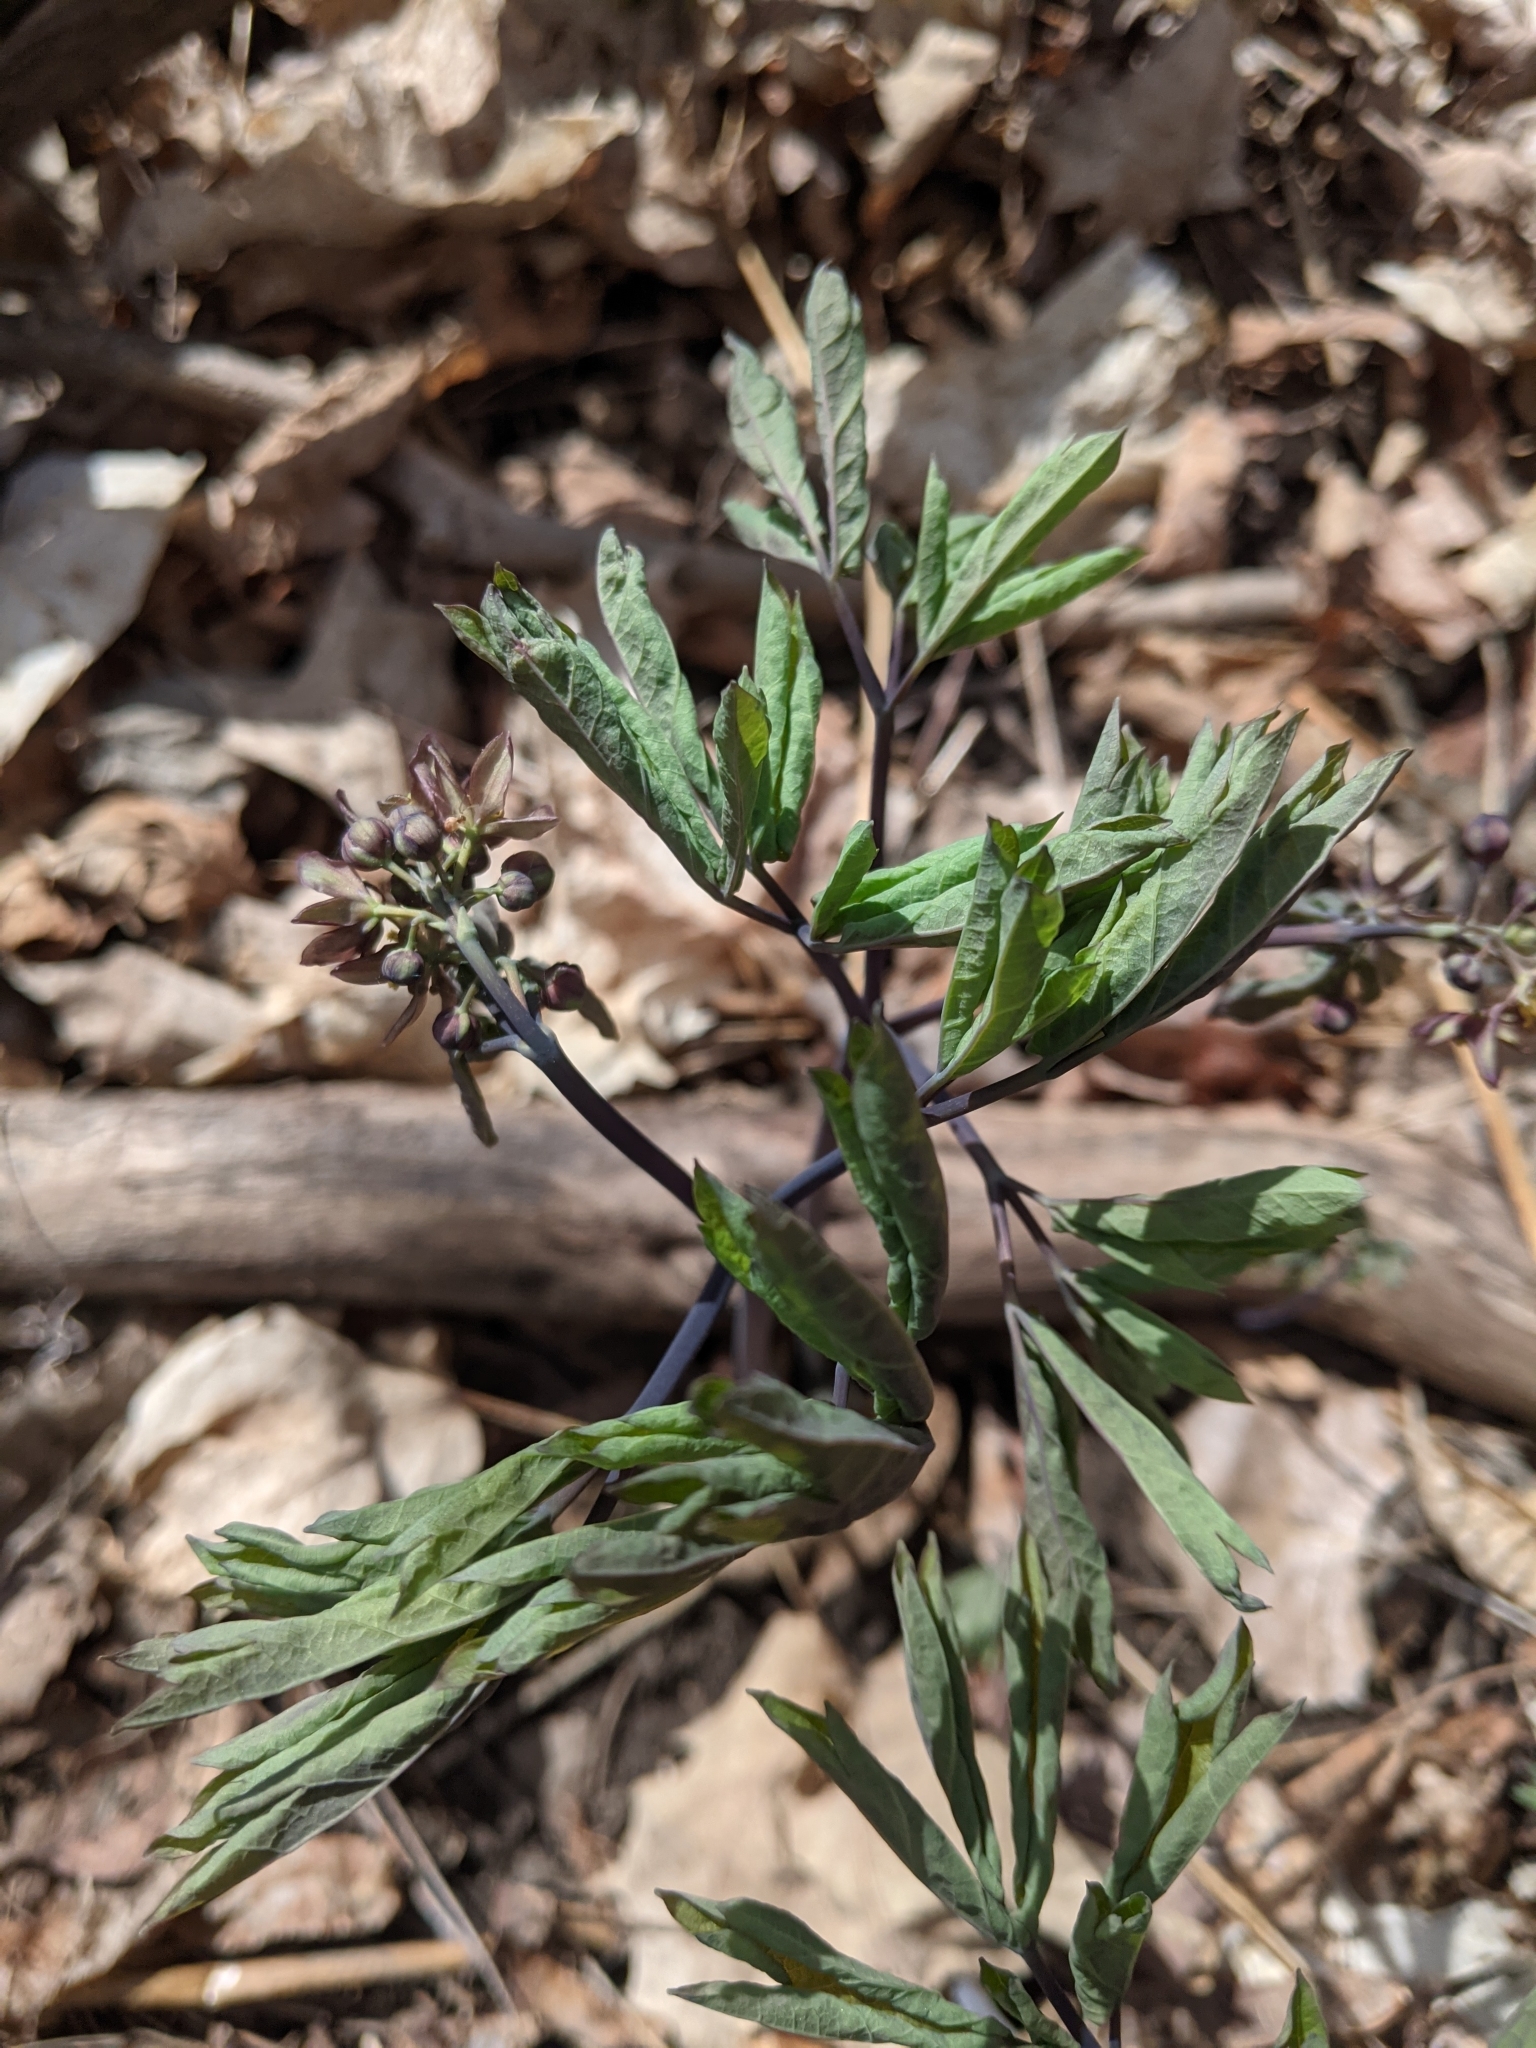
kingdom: Plantae
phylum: Tracheophyta
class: Magnoliopsida
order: Ranunculales
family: Berberidaceae
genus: Caulophyllum
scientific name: Caulophyllum giganteum
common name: Blue cohosh
